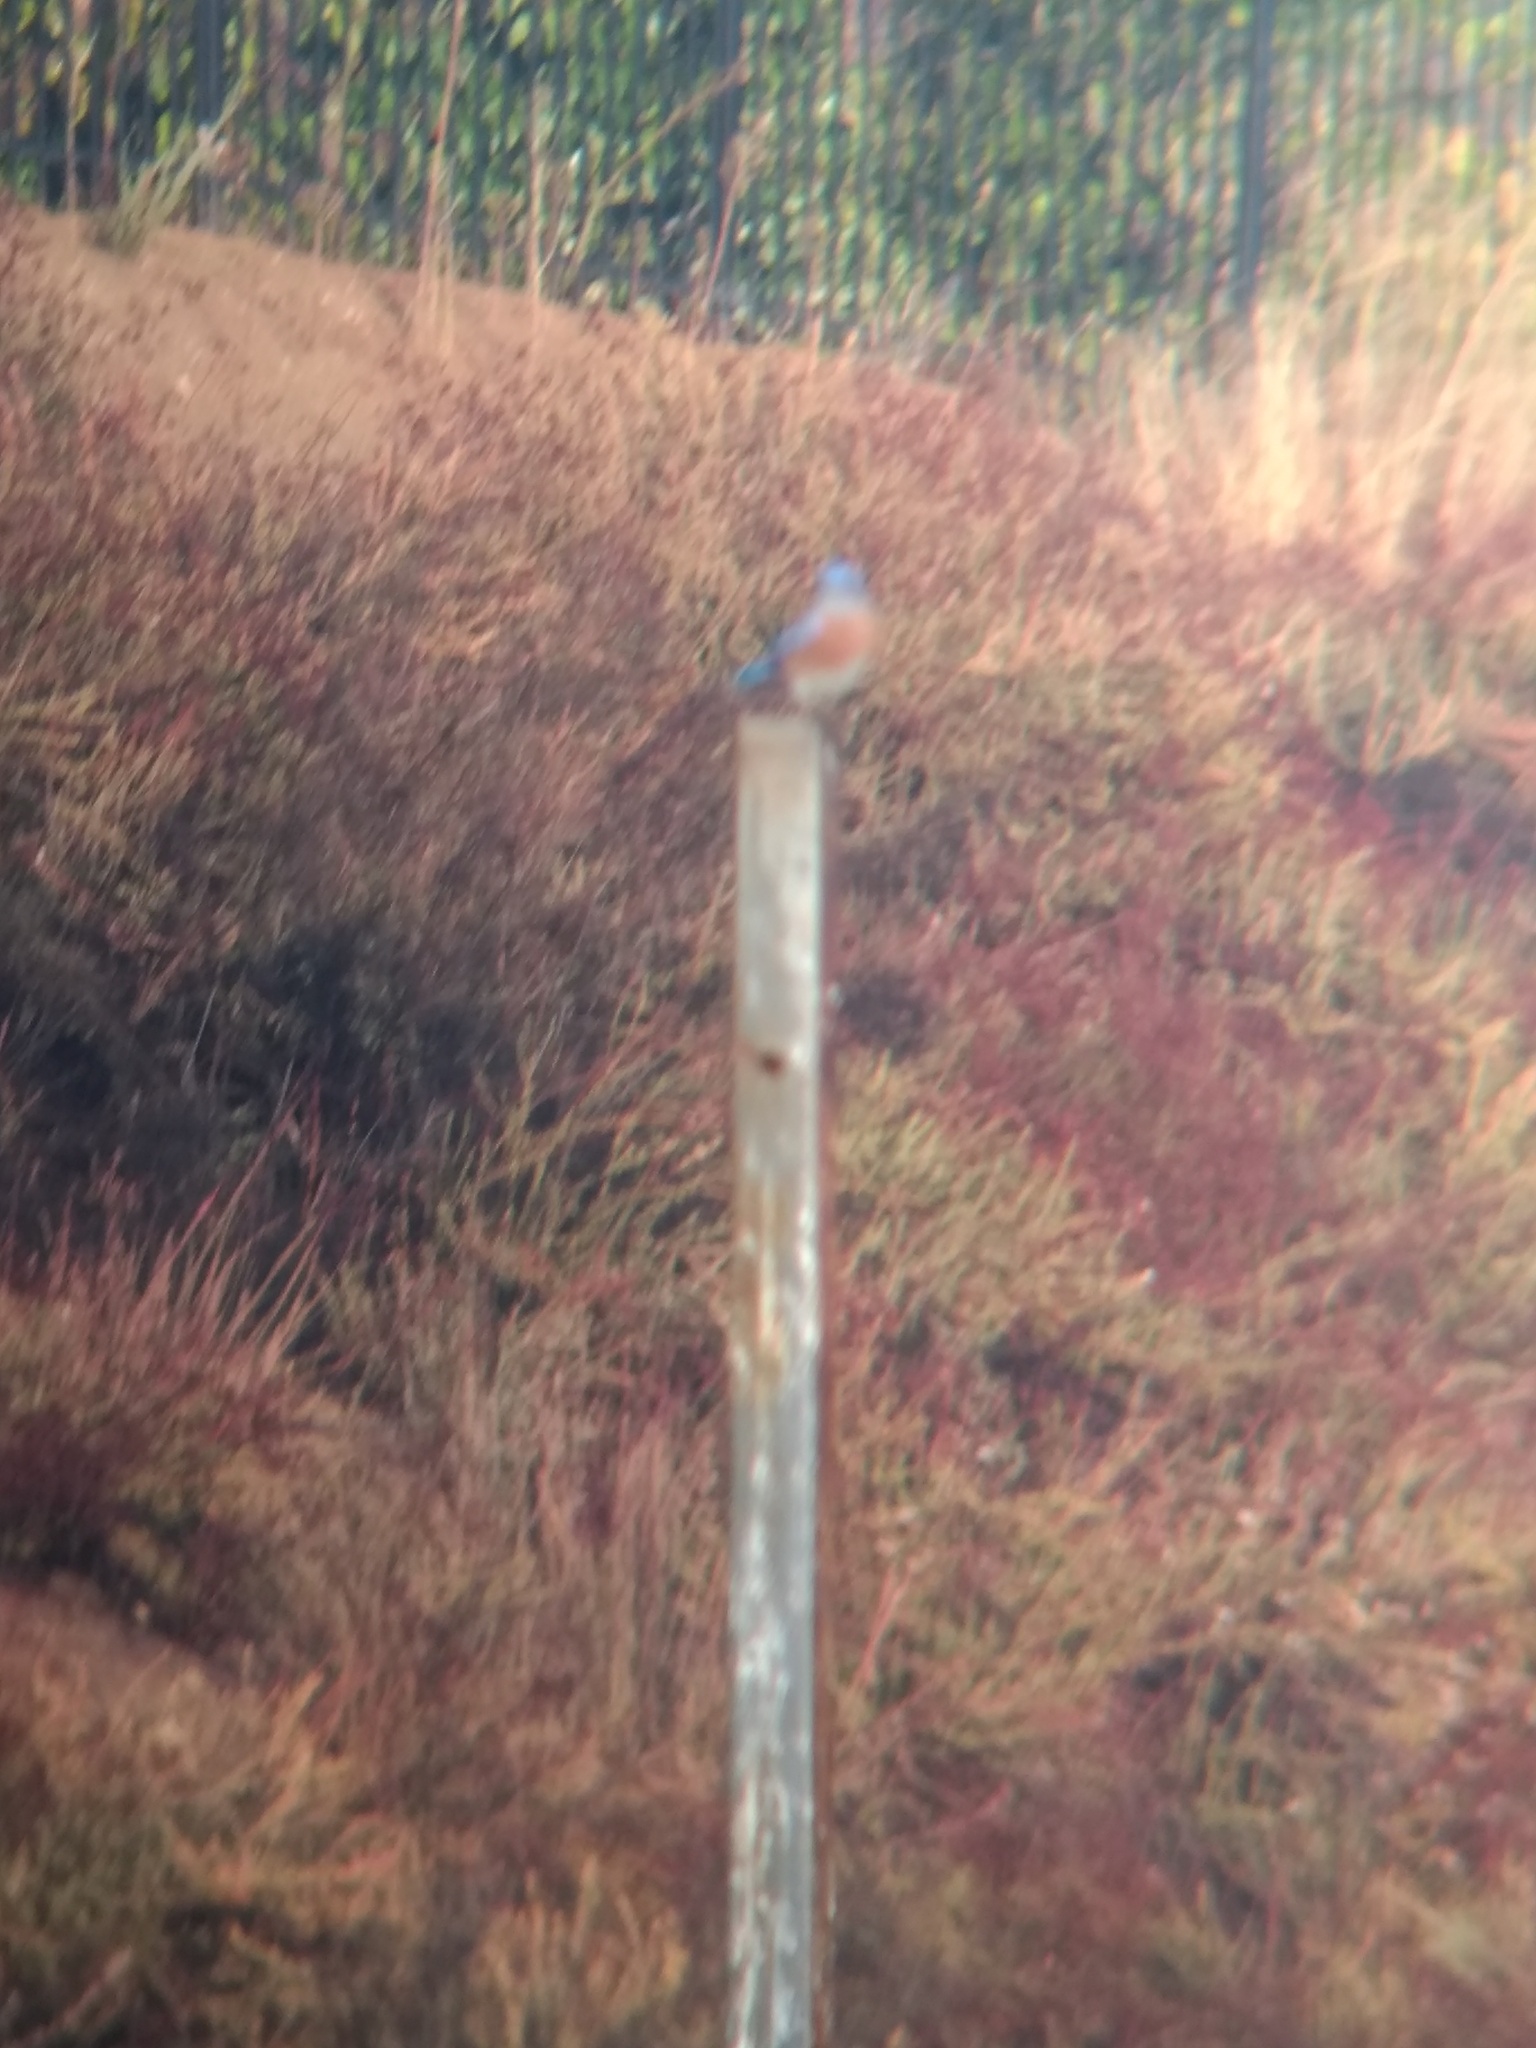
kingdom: Animalia
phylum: Chordata
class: Aves
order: Passeriformes
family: Turdidae
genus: Sialia
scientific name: Sialia mexicana
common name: Western bluebird
